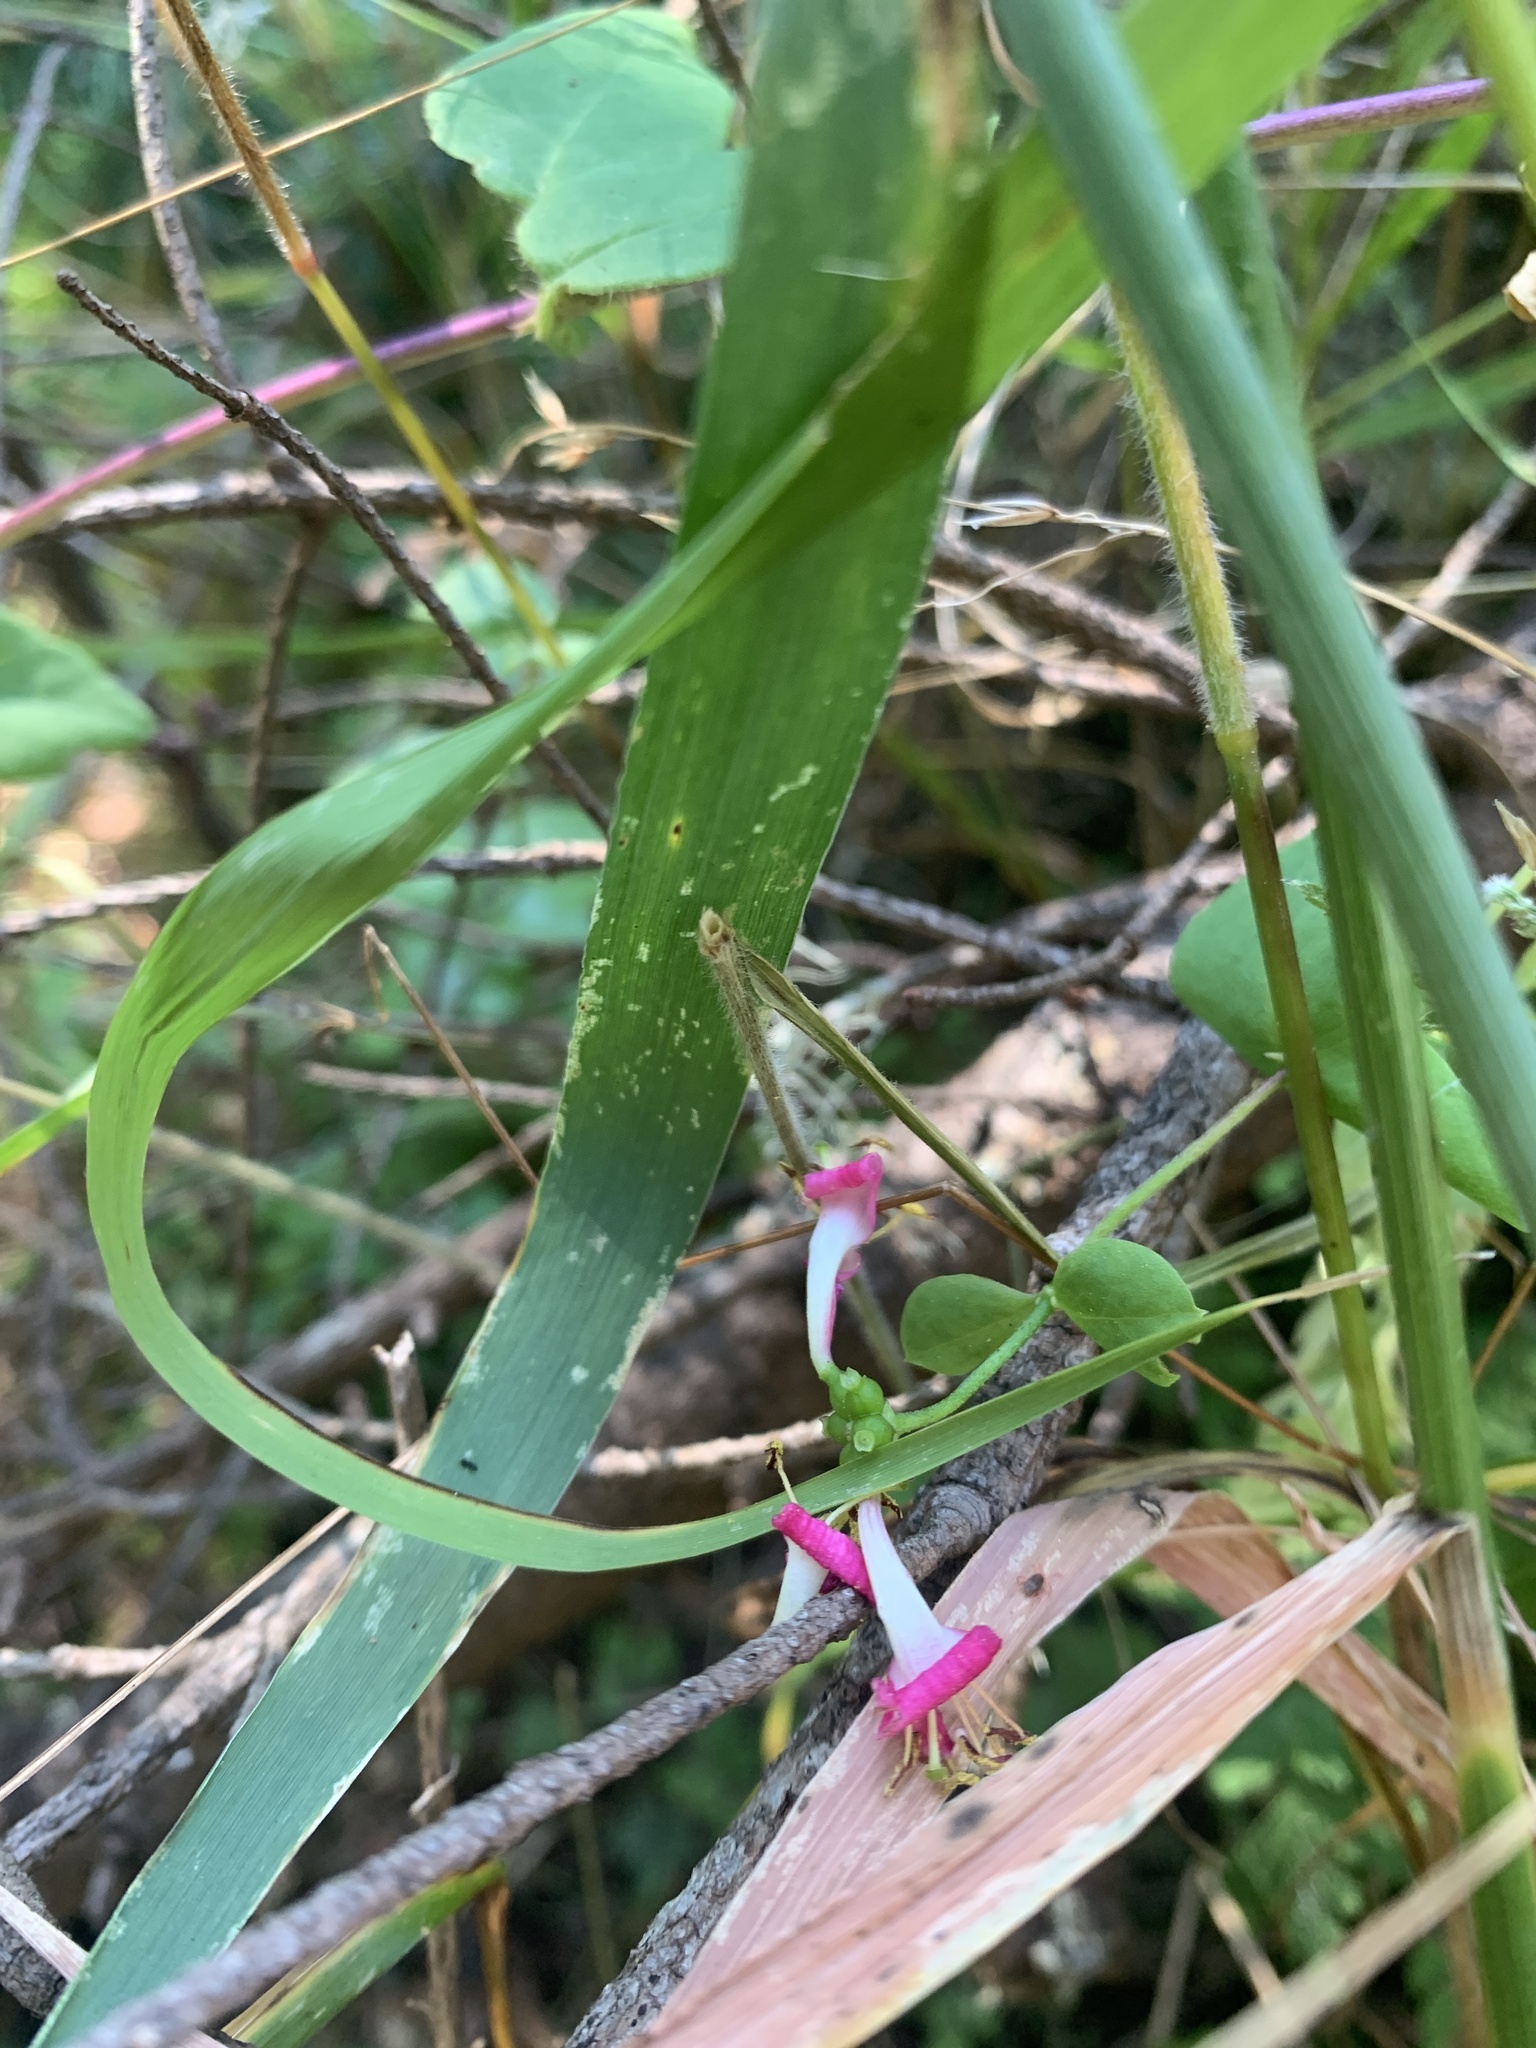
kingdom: Plantae
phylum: Tracheophyta
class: Magnoliopsida
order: Dipsacales
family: Caprifoliaceae
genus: Lonicera
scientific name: Lonicera hispidula
